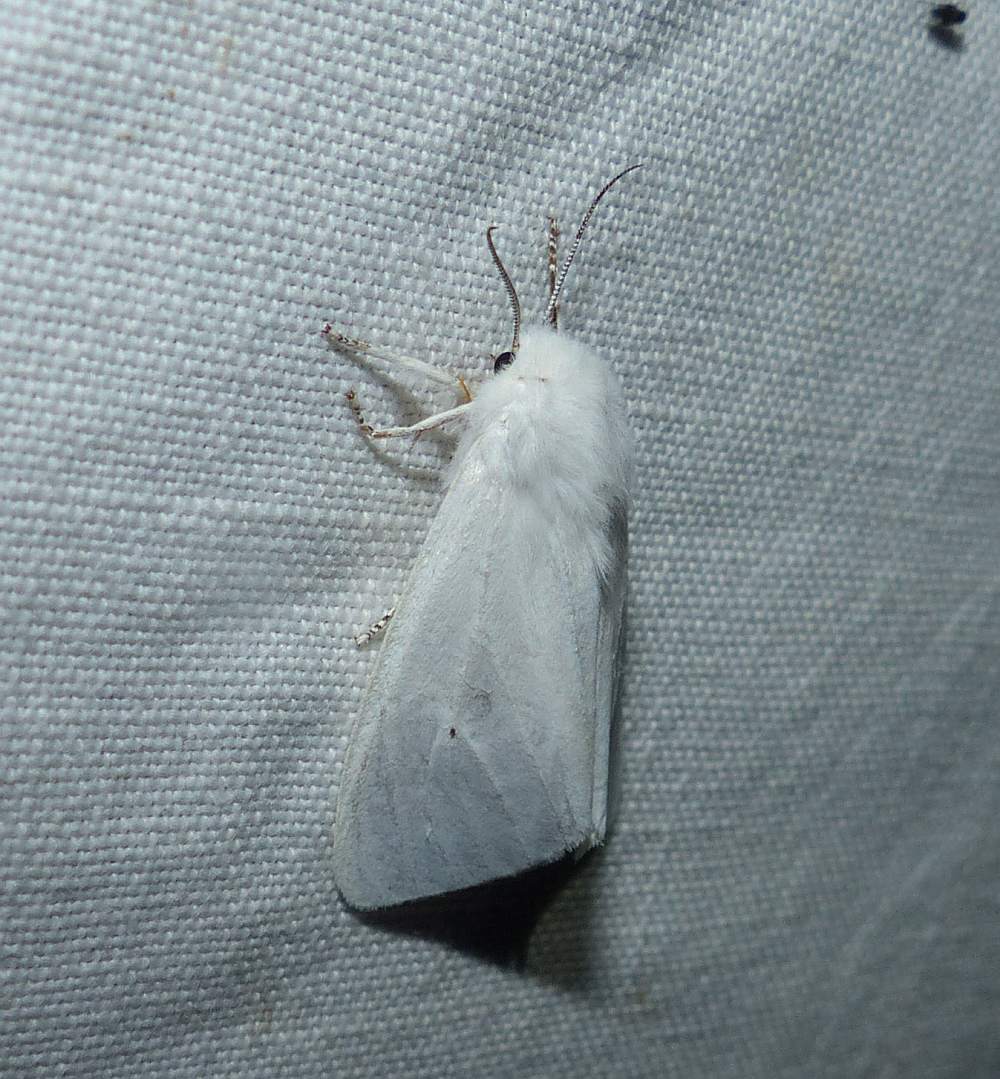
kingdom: Animalia
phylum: Arthropoda
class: Insecta
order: Lepidoptera
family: Erebidae
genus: Spilosoma
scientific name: Spilosoma virginica
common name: Virginia tiger moth
